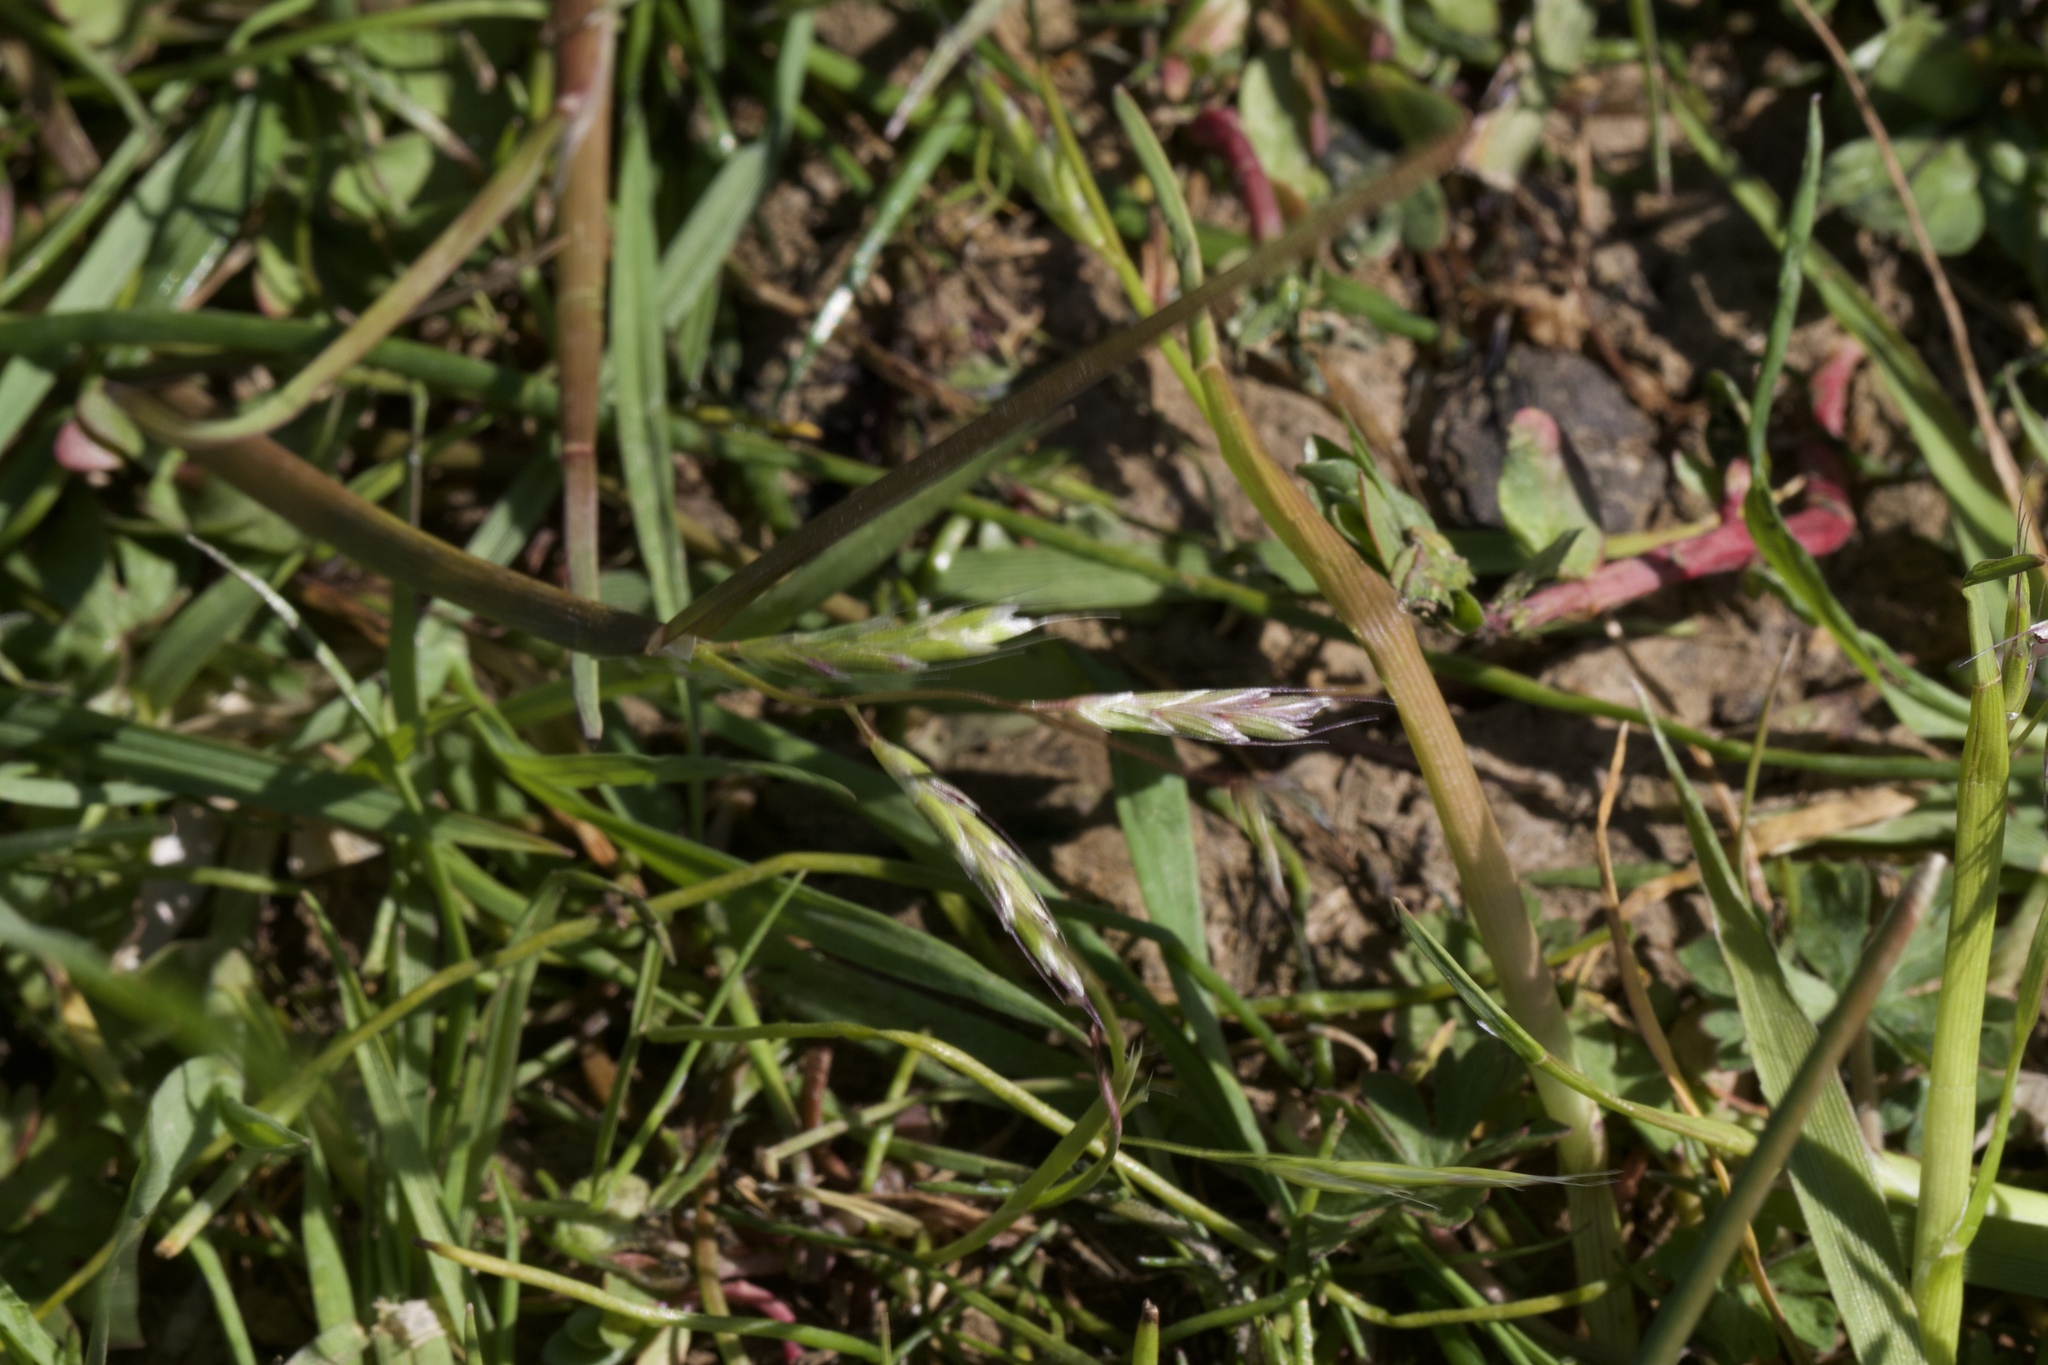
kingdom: Plantae
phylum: Tracheophyta
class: Liliopsida
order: Poales
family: Poaceae
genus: Pleuropogon
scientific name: Pleuropogon californicus
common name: California semaphore grass
